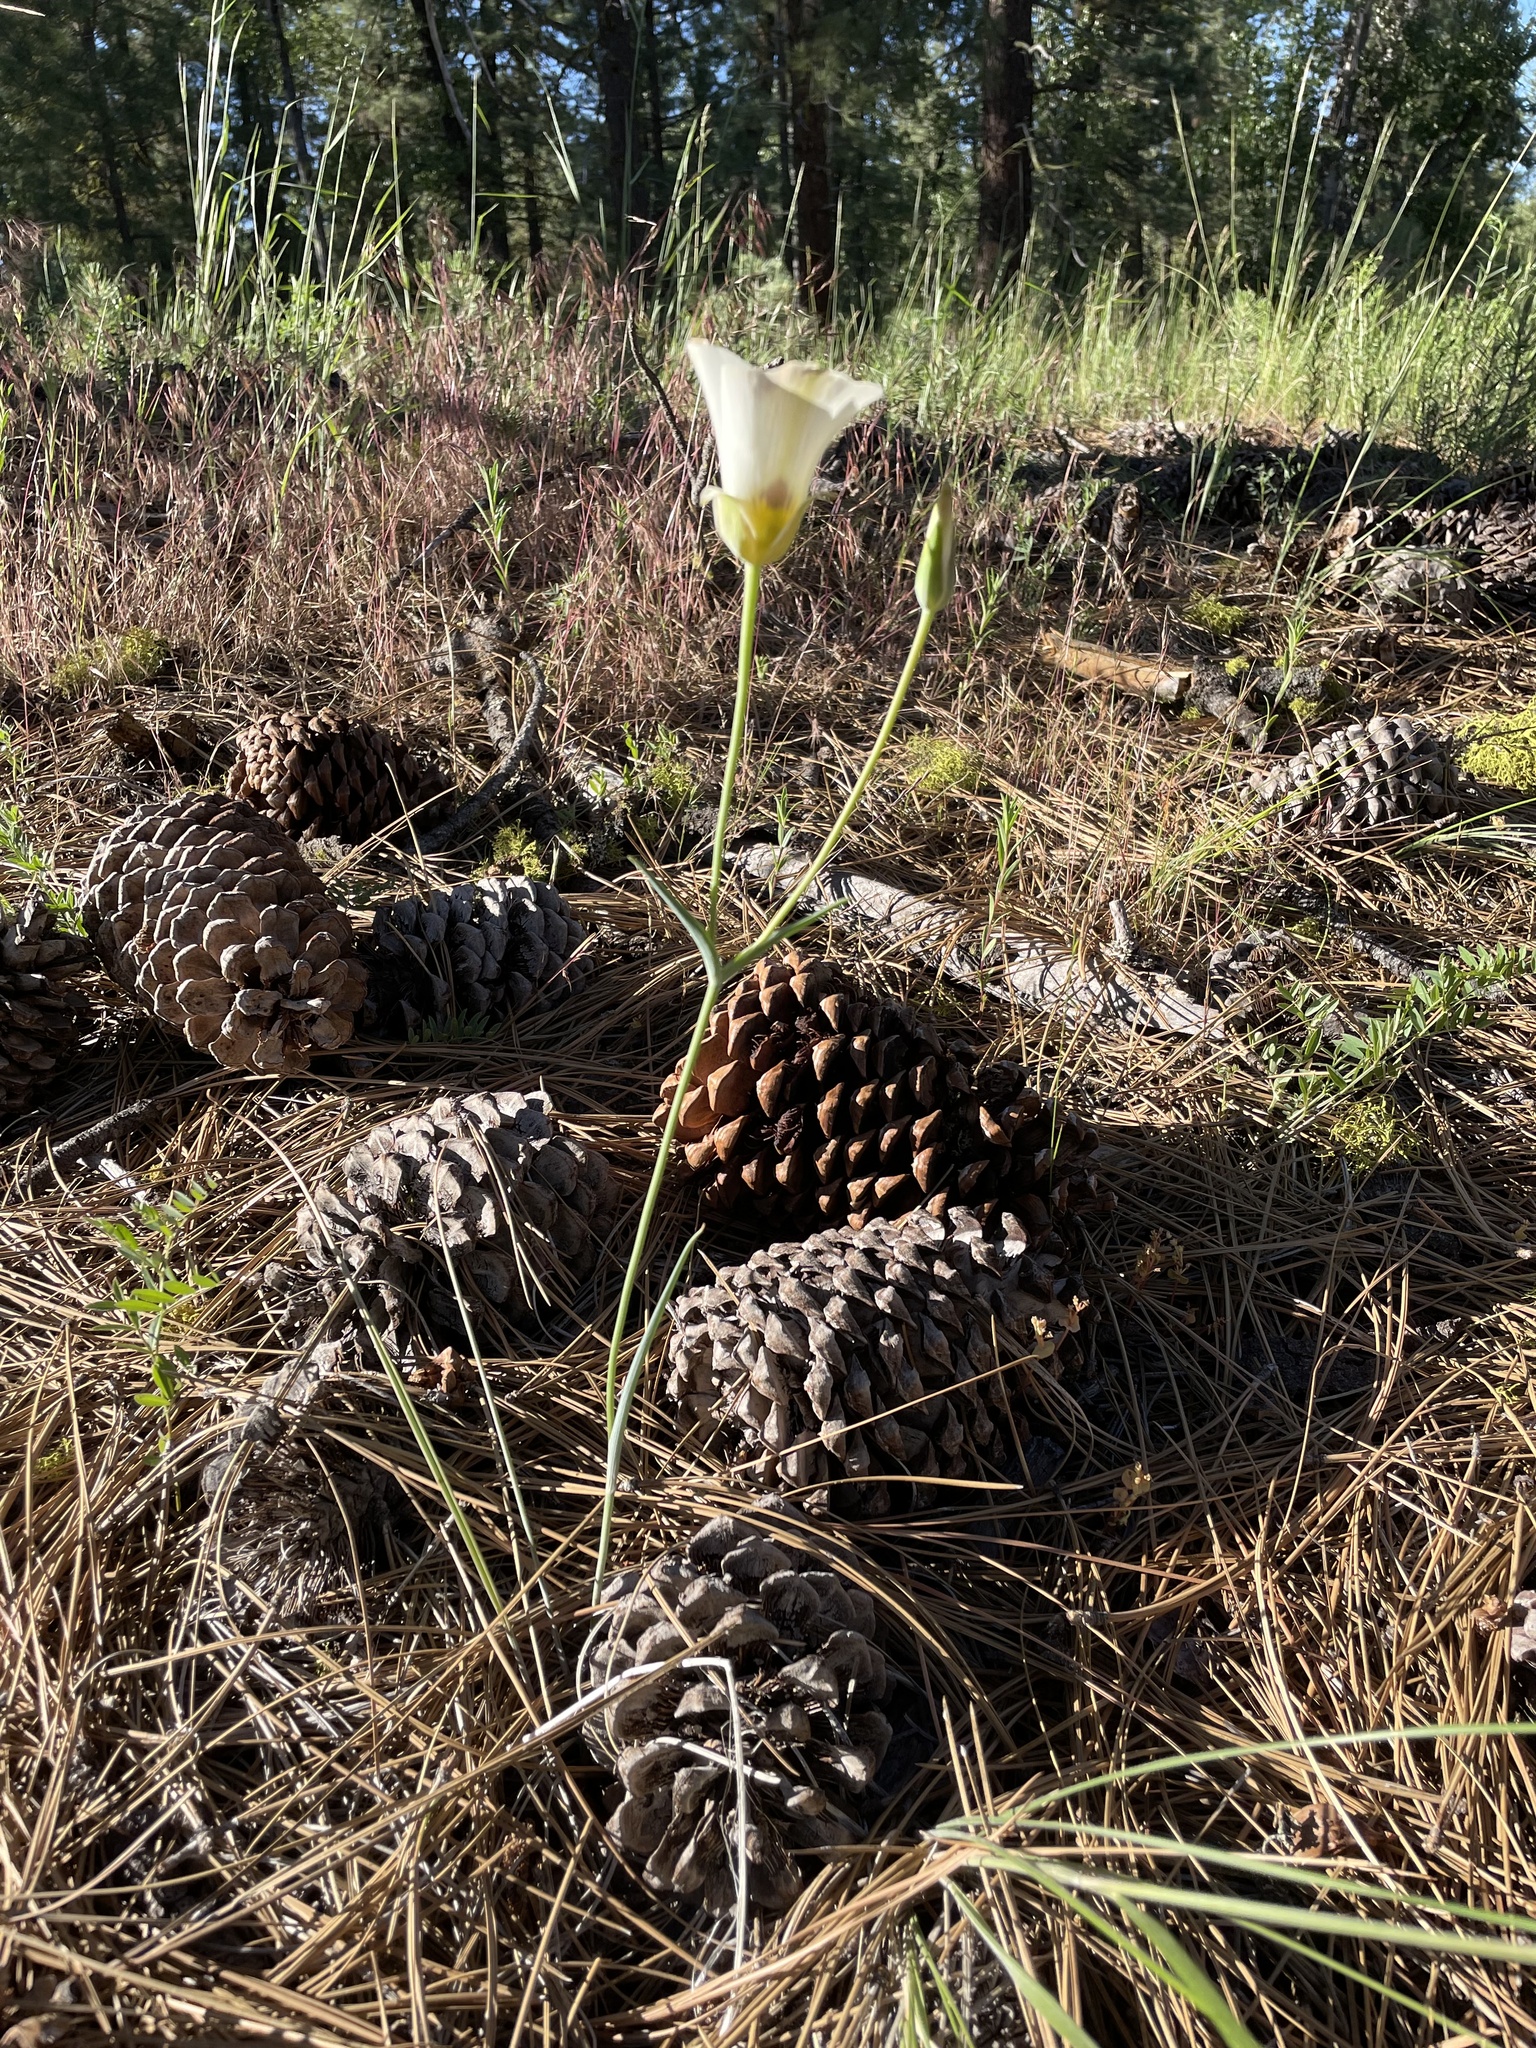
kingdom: Plantae
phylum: Tracheophyta
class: Liliopsida
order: Liliales
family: Liliaceae
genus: Calochortus
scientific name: Calochortus leichtlinii
